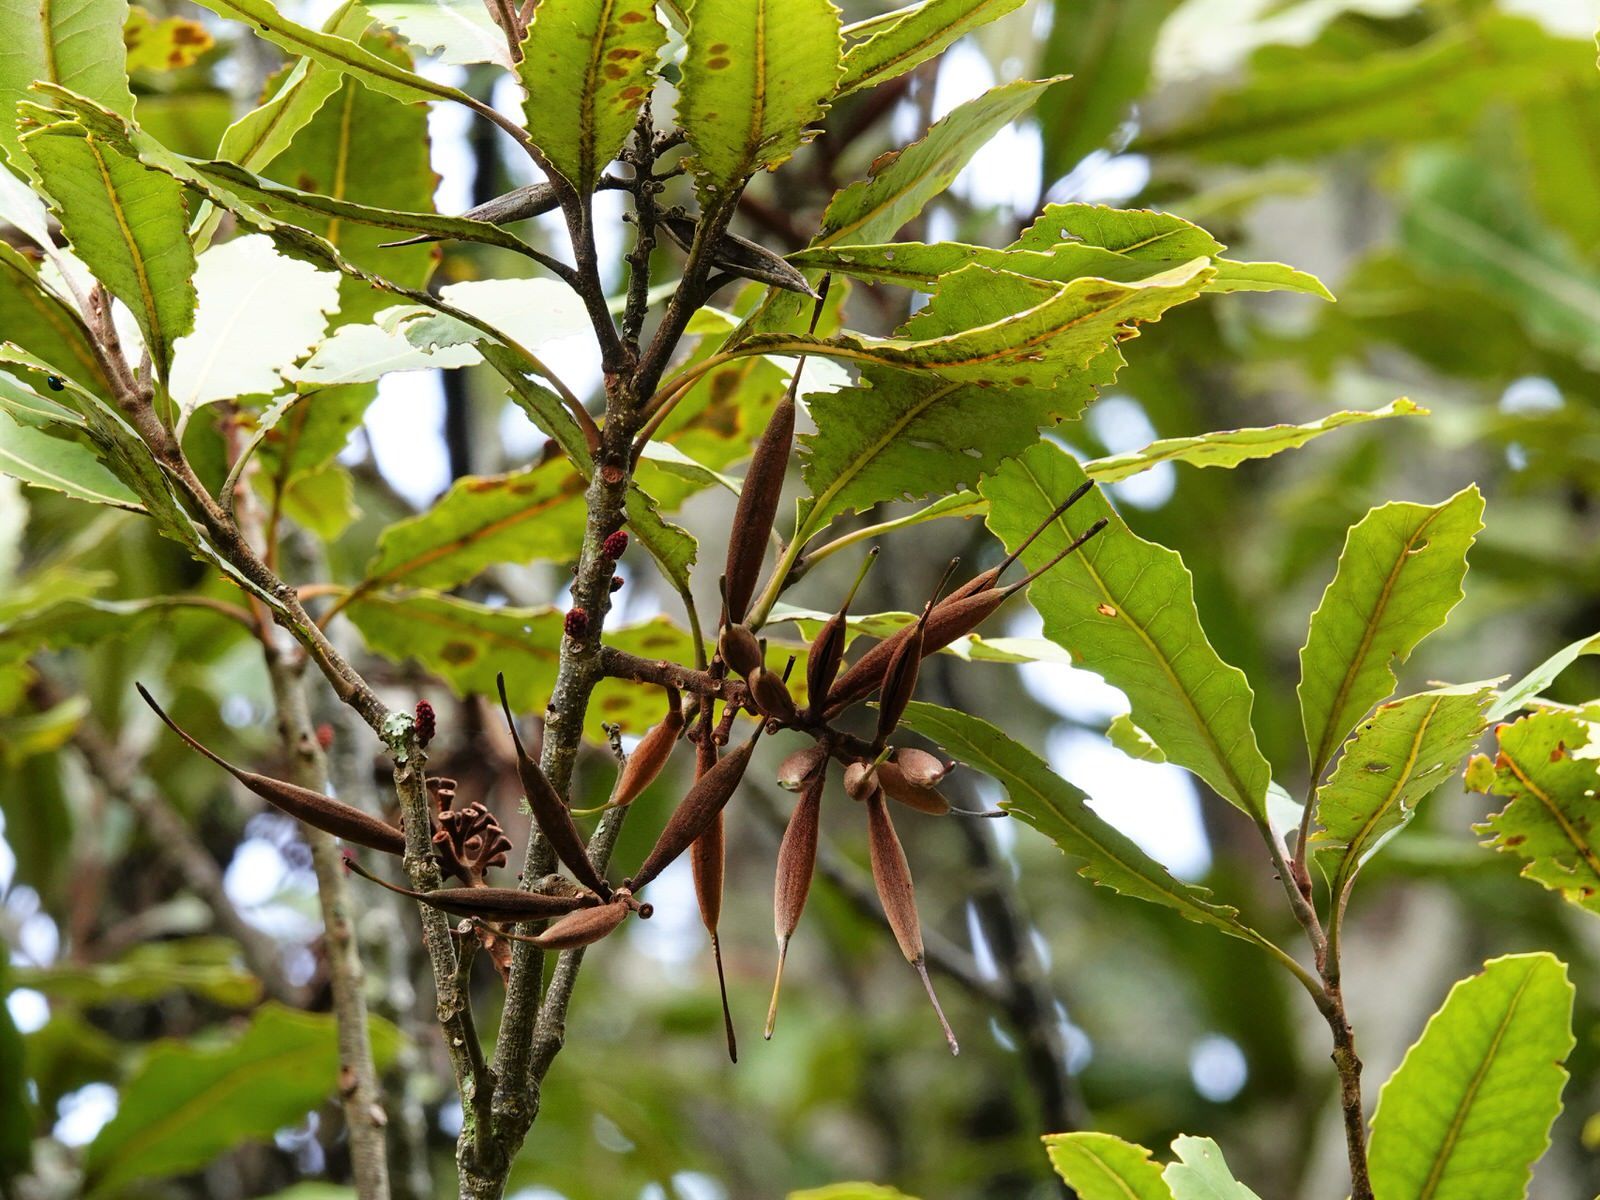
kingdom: Plantae
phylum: Tracheophyta
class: Magnoliopsida
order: Proteales
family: Proteaceae
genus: Knightia
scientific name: Knightia excelsa
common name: New zealand-honeysuckle
